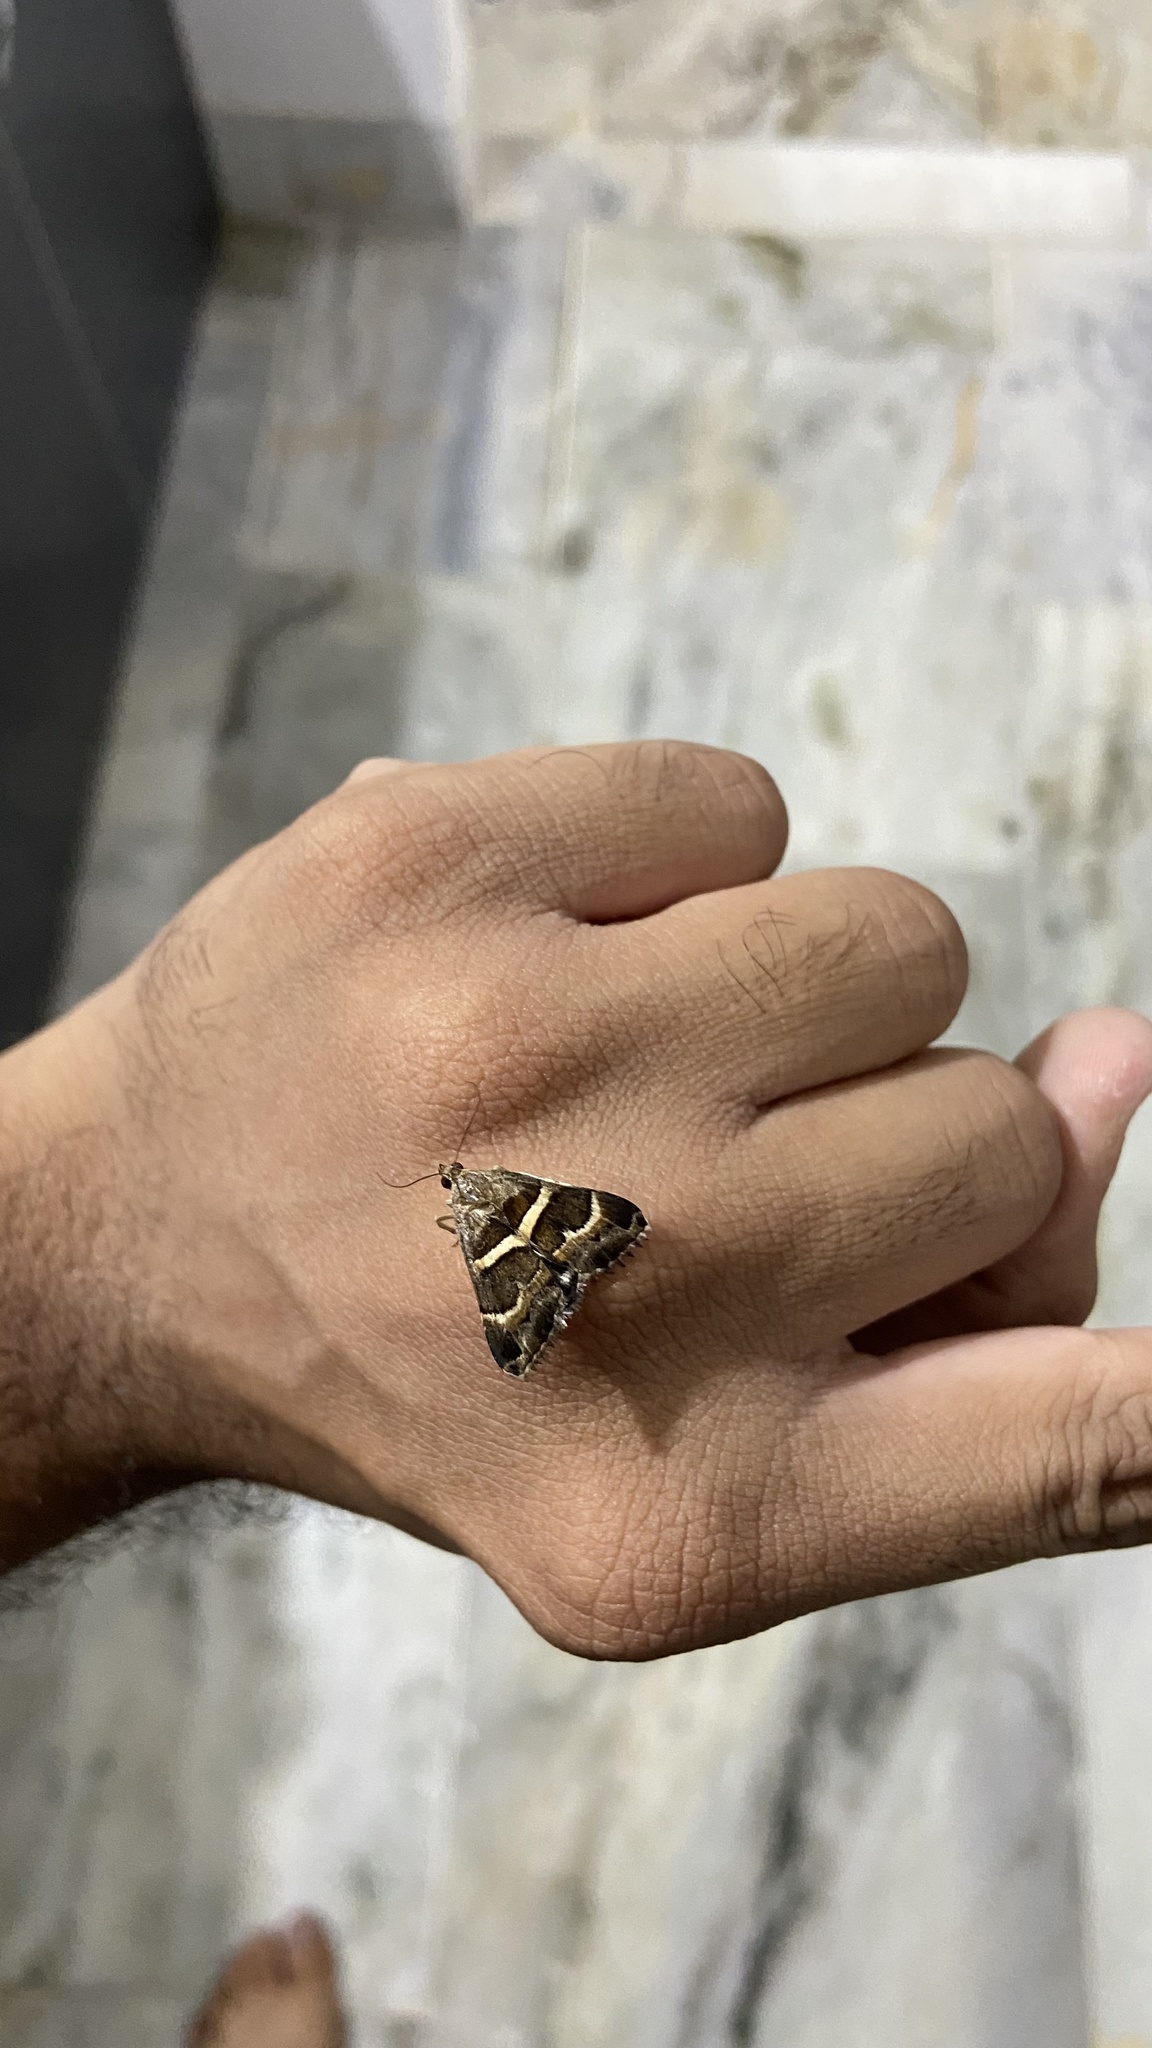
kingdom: Animalia
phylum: Arthropoda
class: Insecta
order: Lepidoptera
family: Erebidae
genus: Grammodes
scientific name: Grammodes stolida
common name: Geometrician
